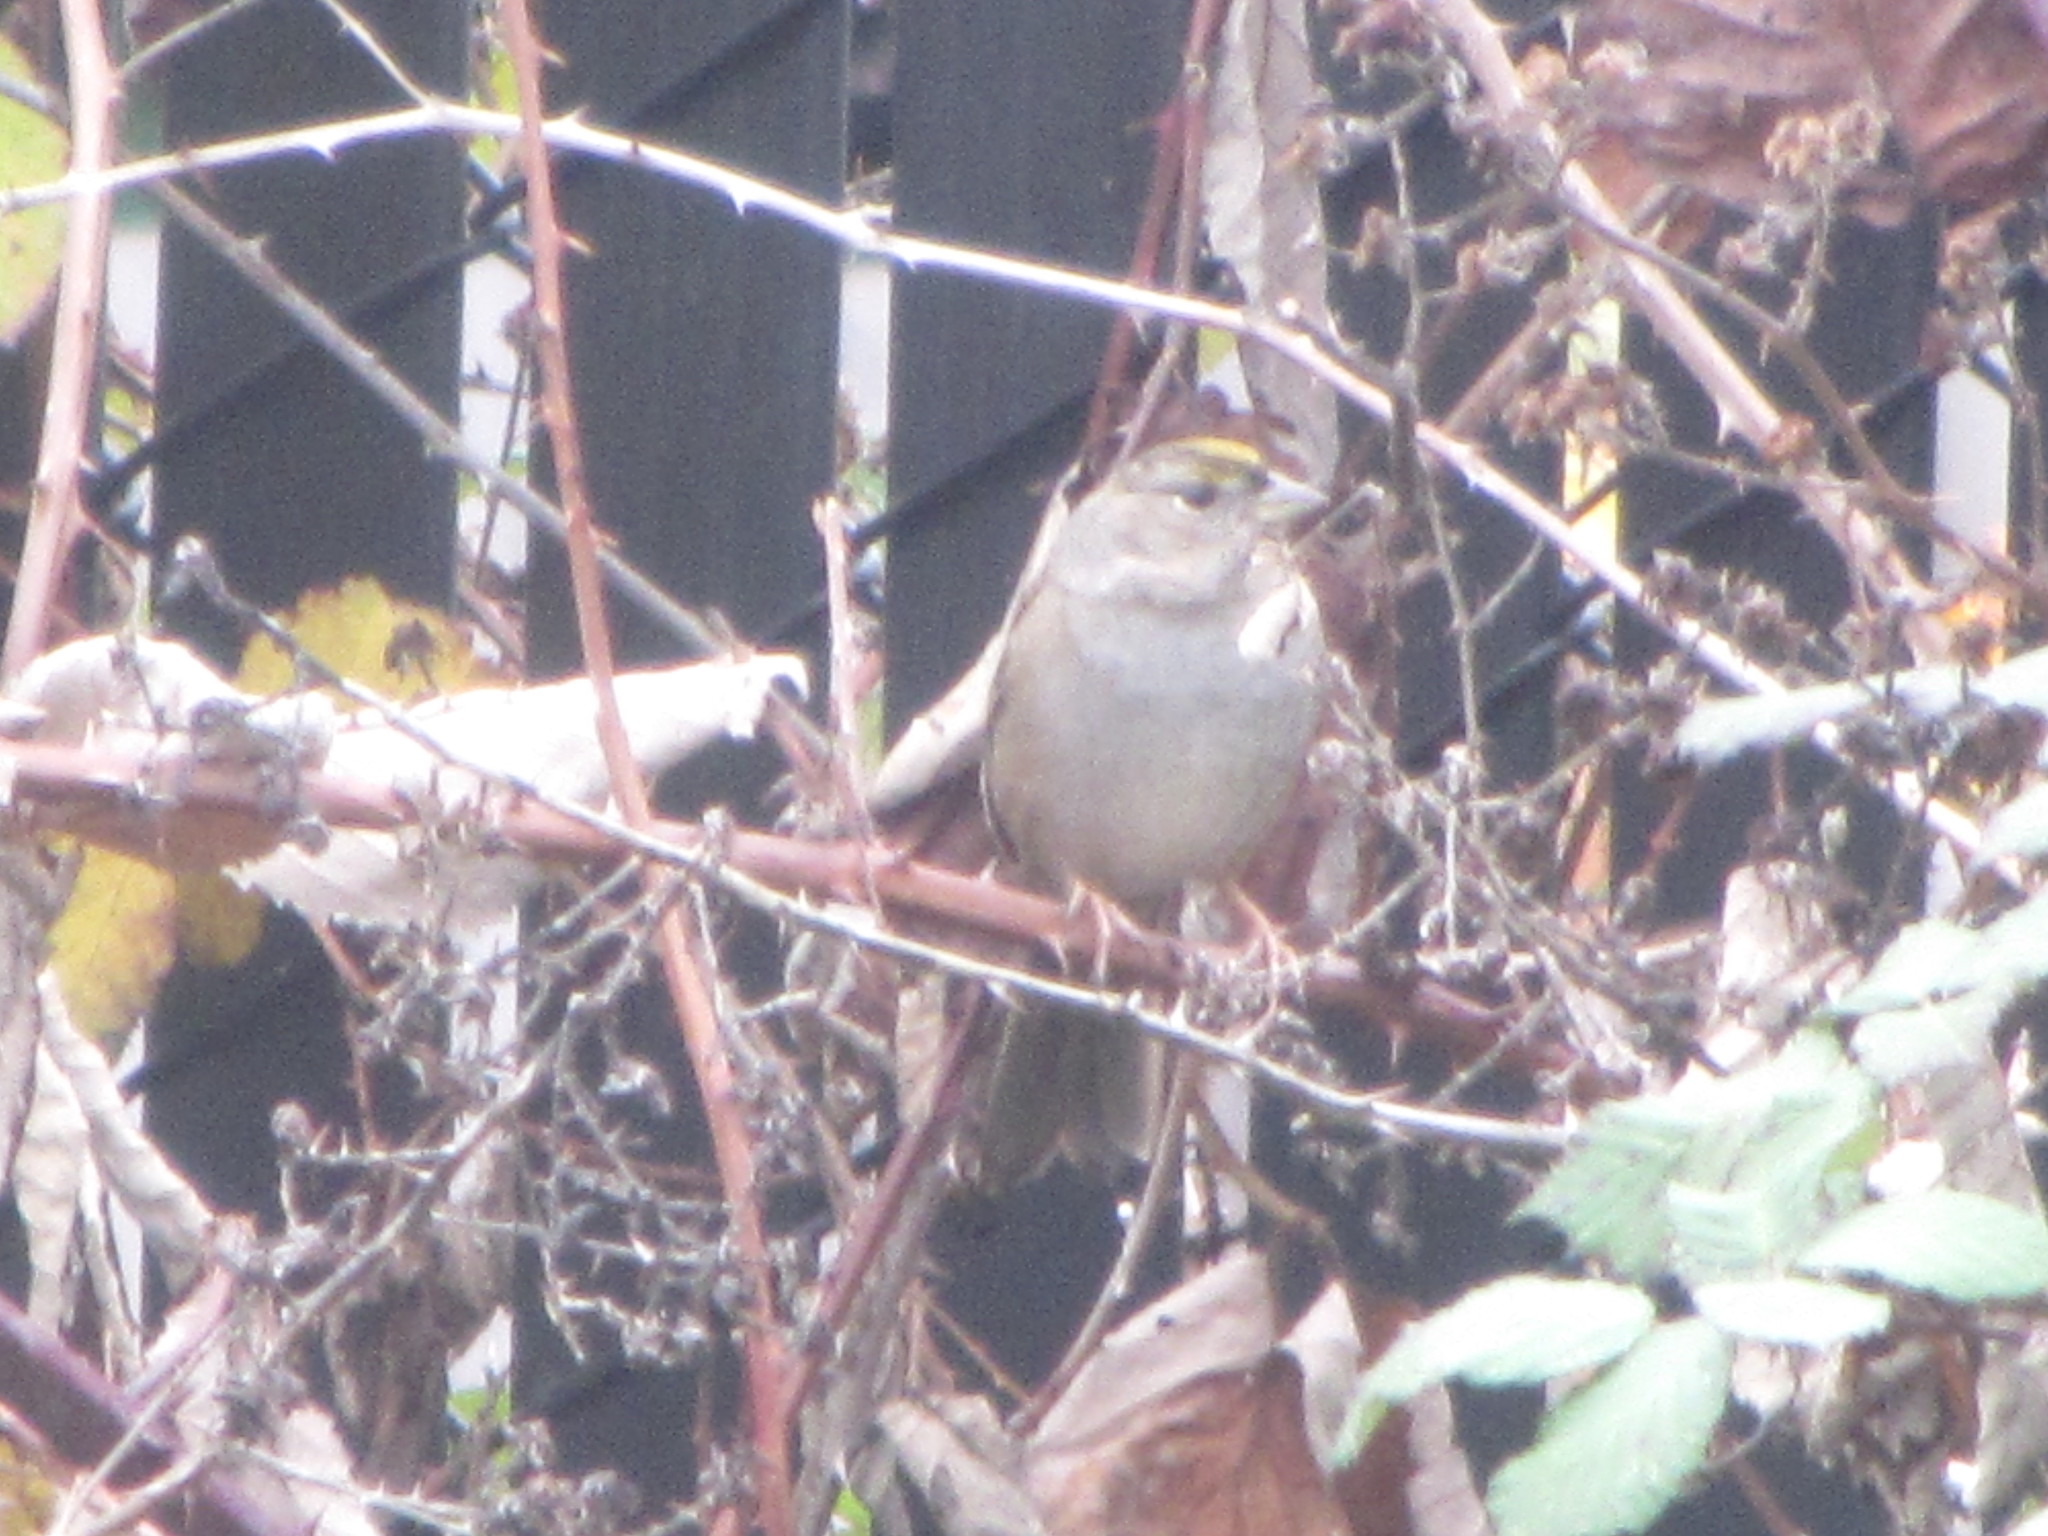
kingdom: Animalia
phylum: Chordata
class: Aves
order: Passeriformes
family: Passerellidae
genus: Zonotrichia
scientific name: Zonotrichia atricapilla
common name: Golden-crowned sparrow
